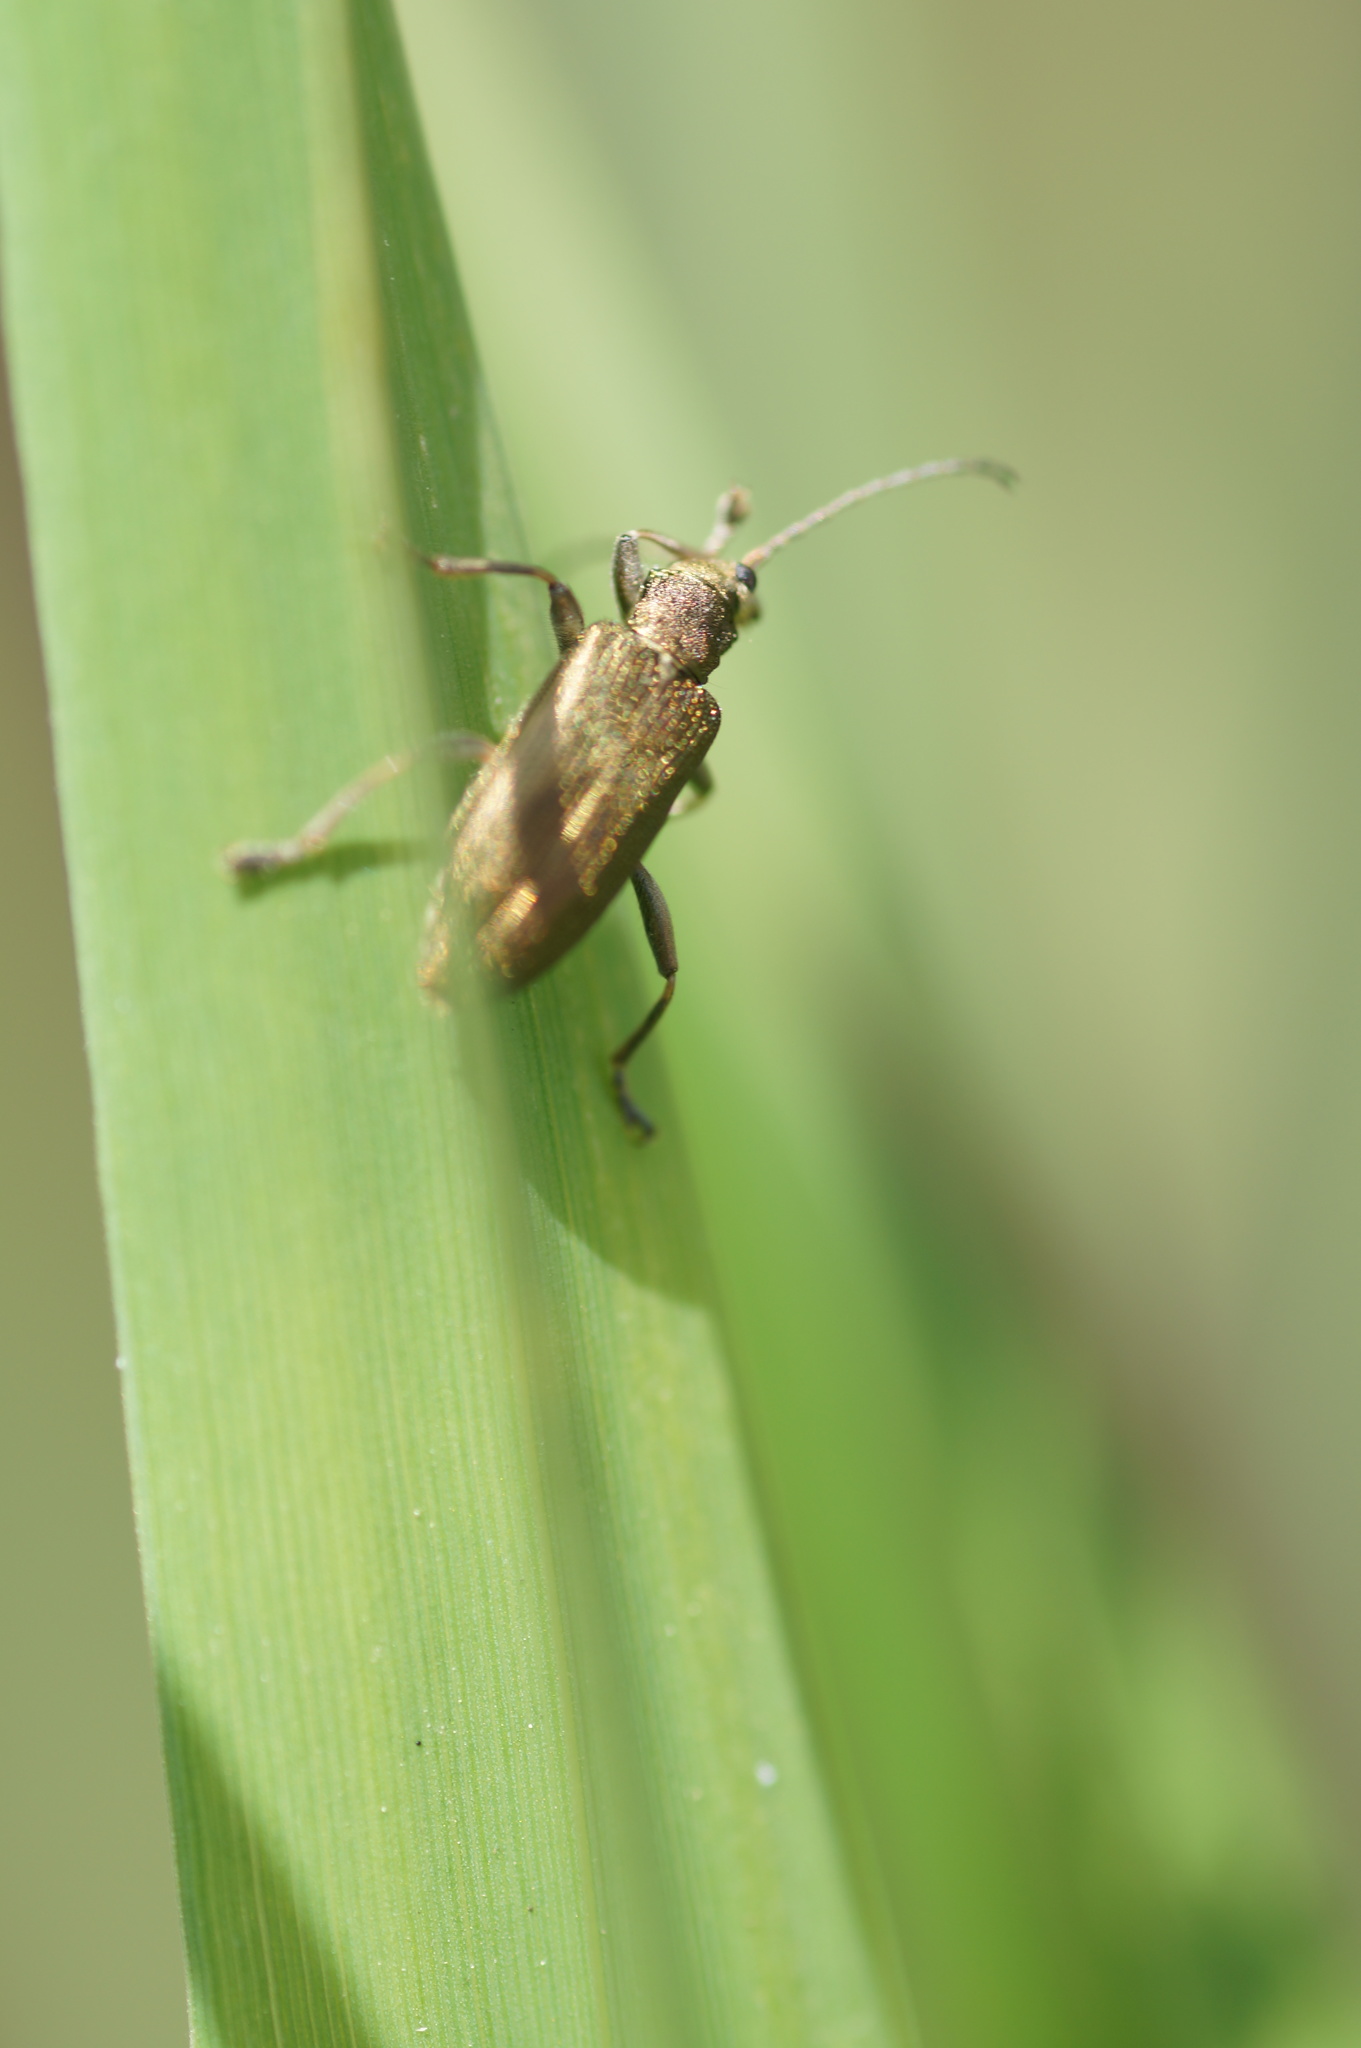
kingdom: Animalia
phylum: Arthropoda
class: Insecta
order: Coleoptera
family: Chrysomelidae
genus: Donacia
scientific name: Donacia
